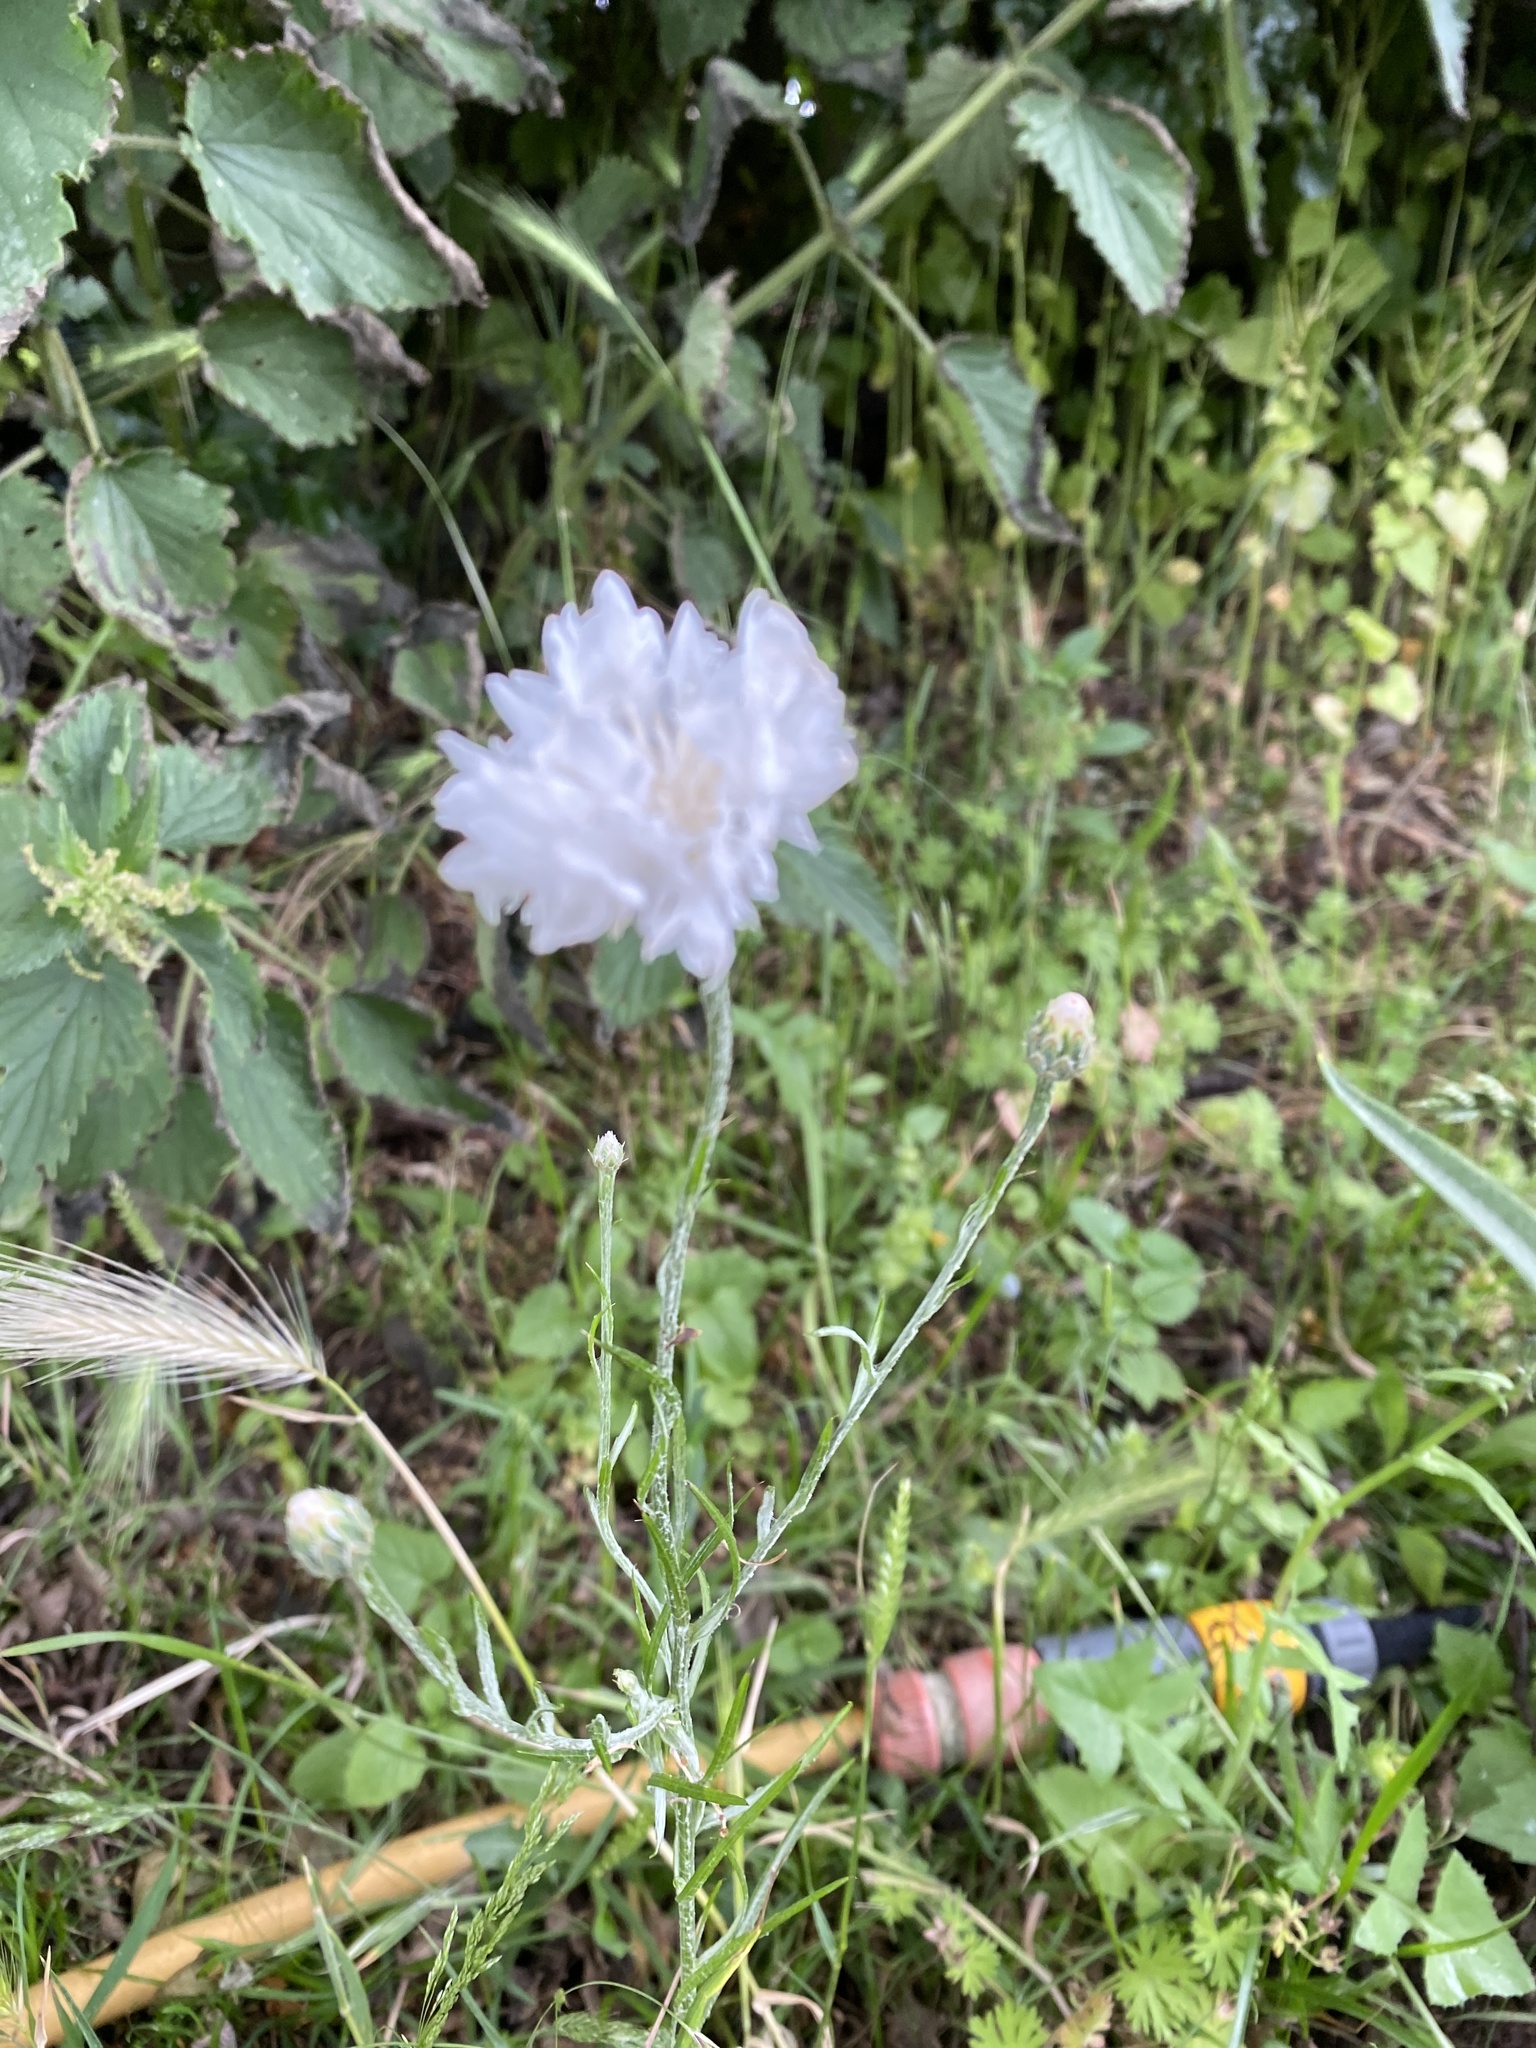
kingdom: Plantae
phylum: Tracheophyta
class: Magnoliopsida
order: Asterales
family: Asteraceae
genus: Centaurea
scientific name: Centaurea cyanus
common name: Cornflower
